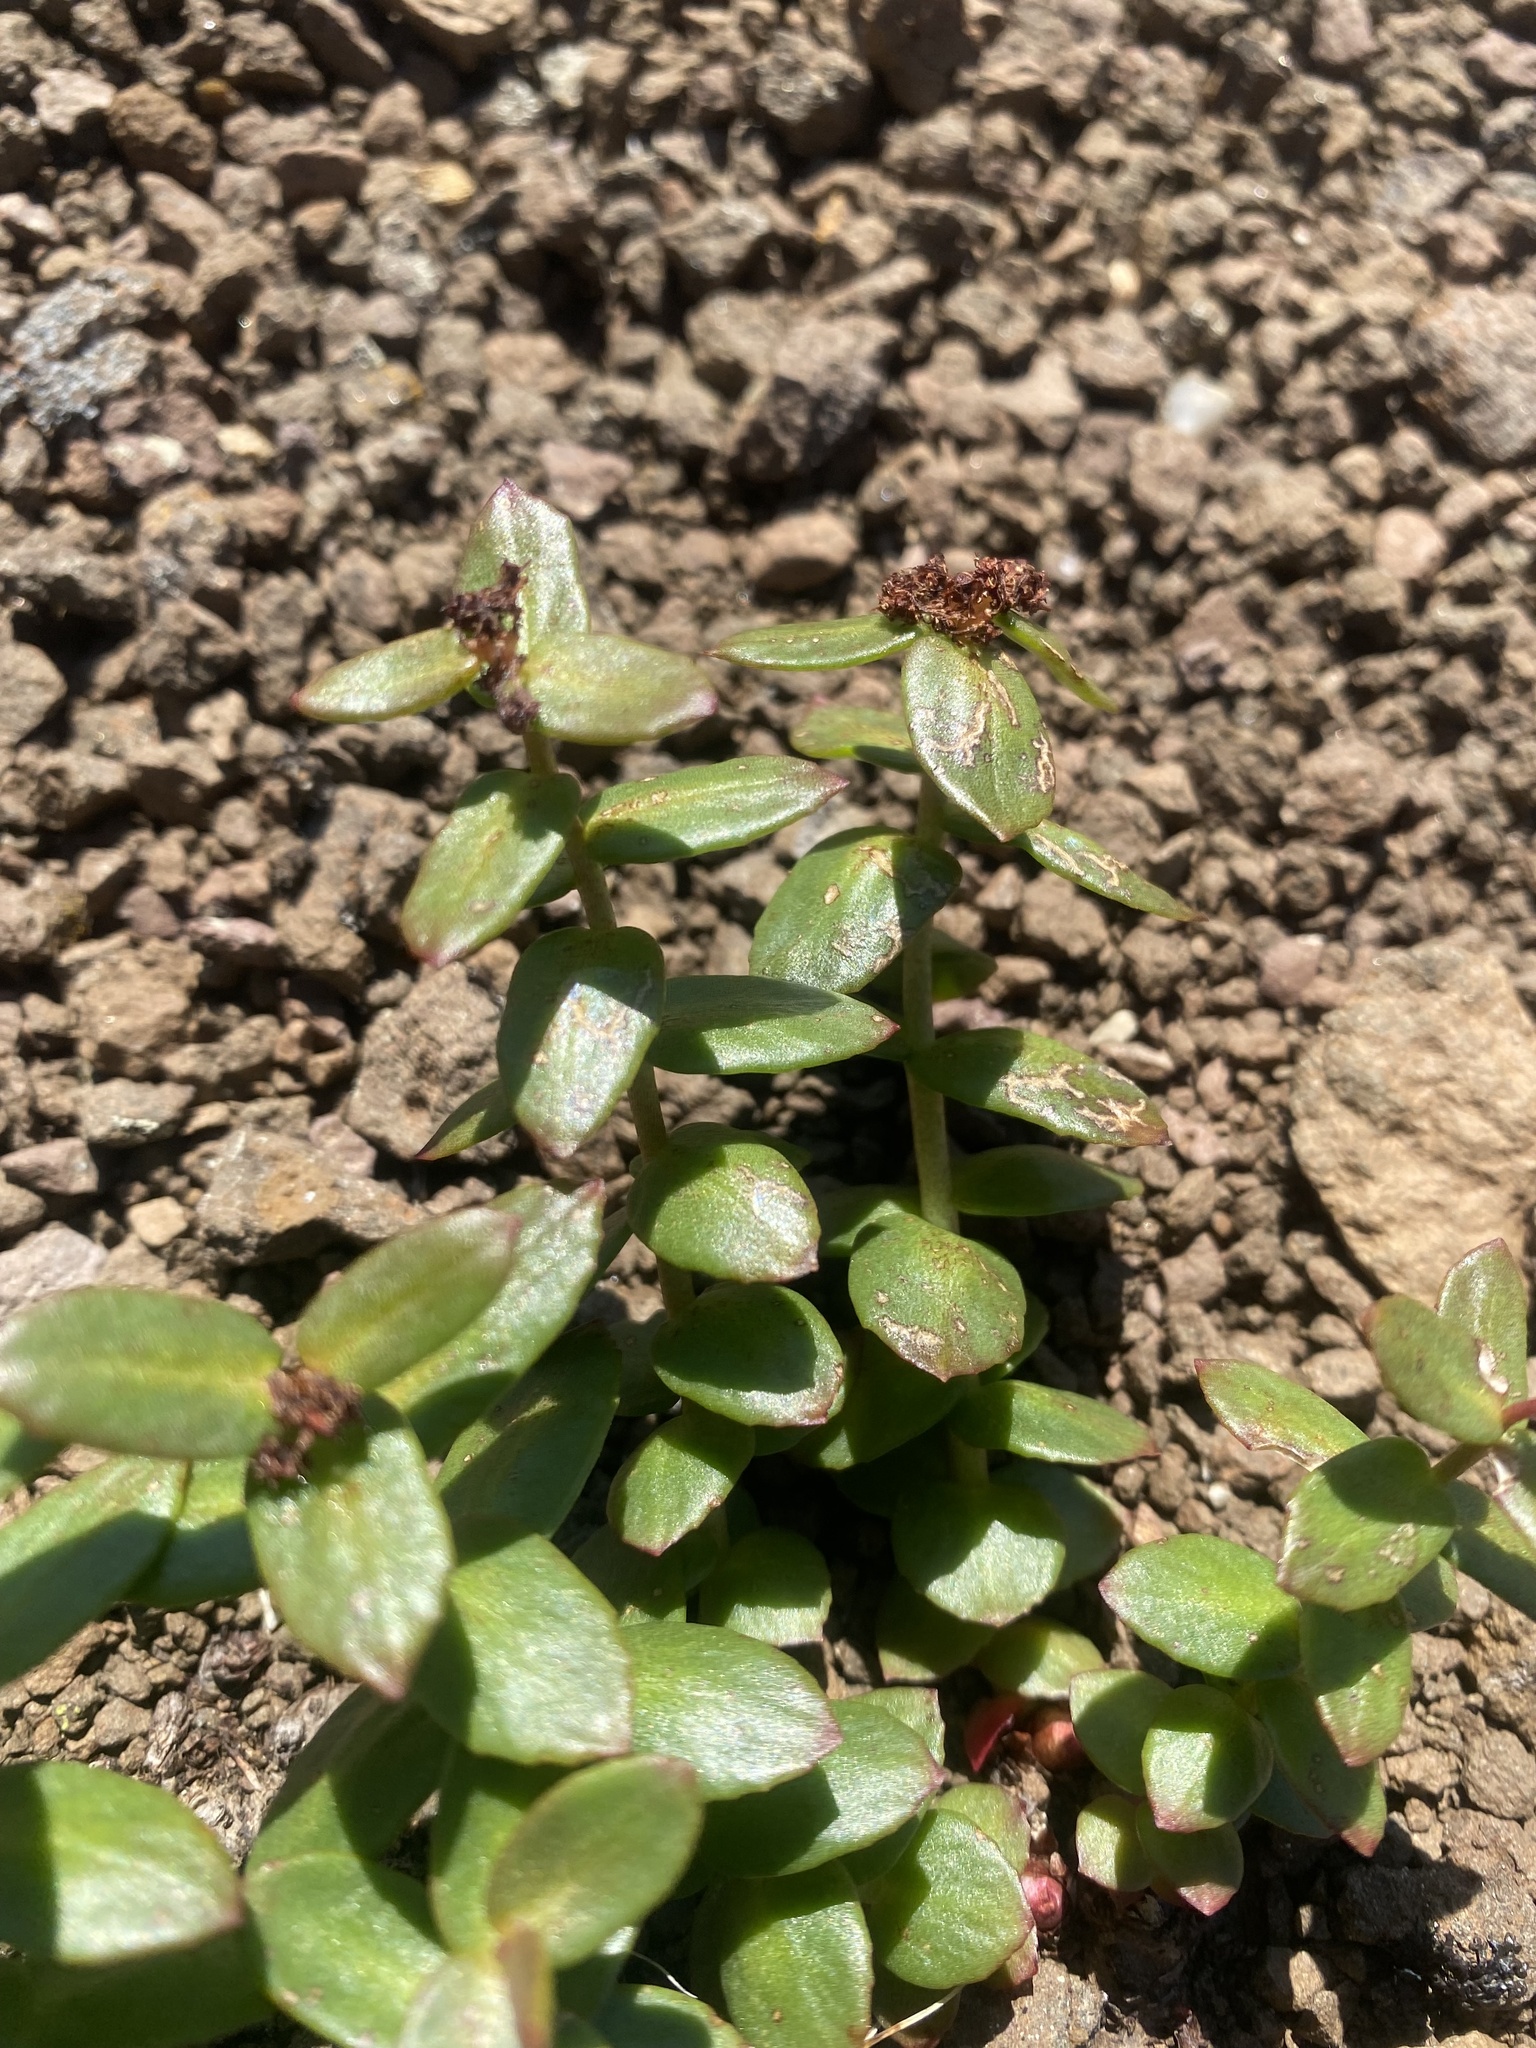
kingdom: Plantae
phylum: Tracheophyta
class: Magnoliopsida
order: Saxifragales
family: Crassulaceae
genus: Rhodiola
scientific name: Rhodiola rosea
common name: Roseroot
